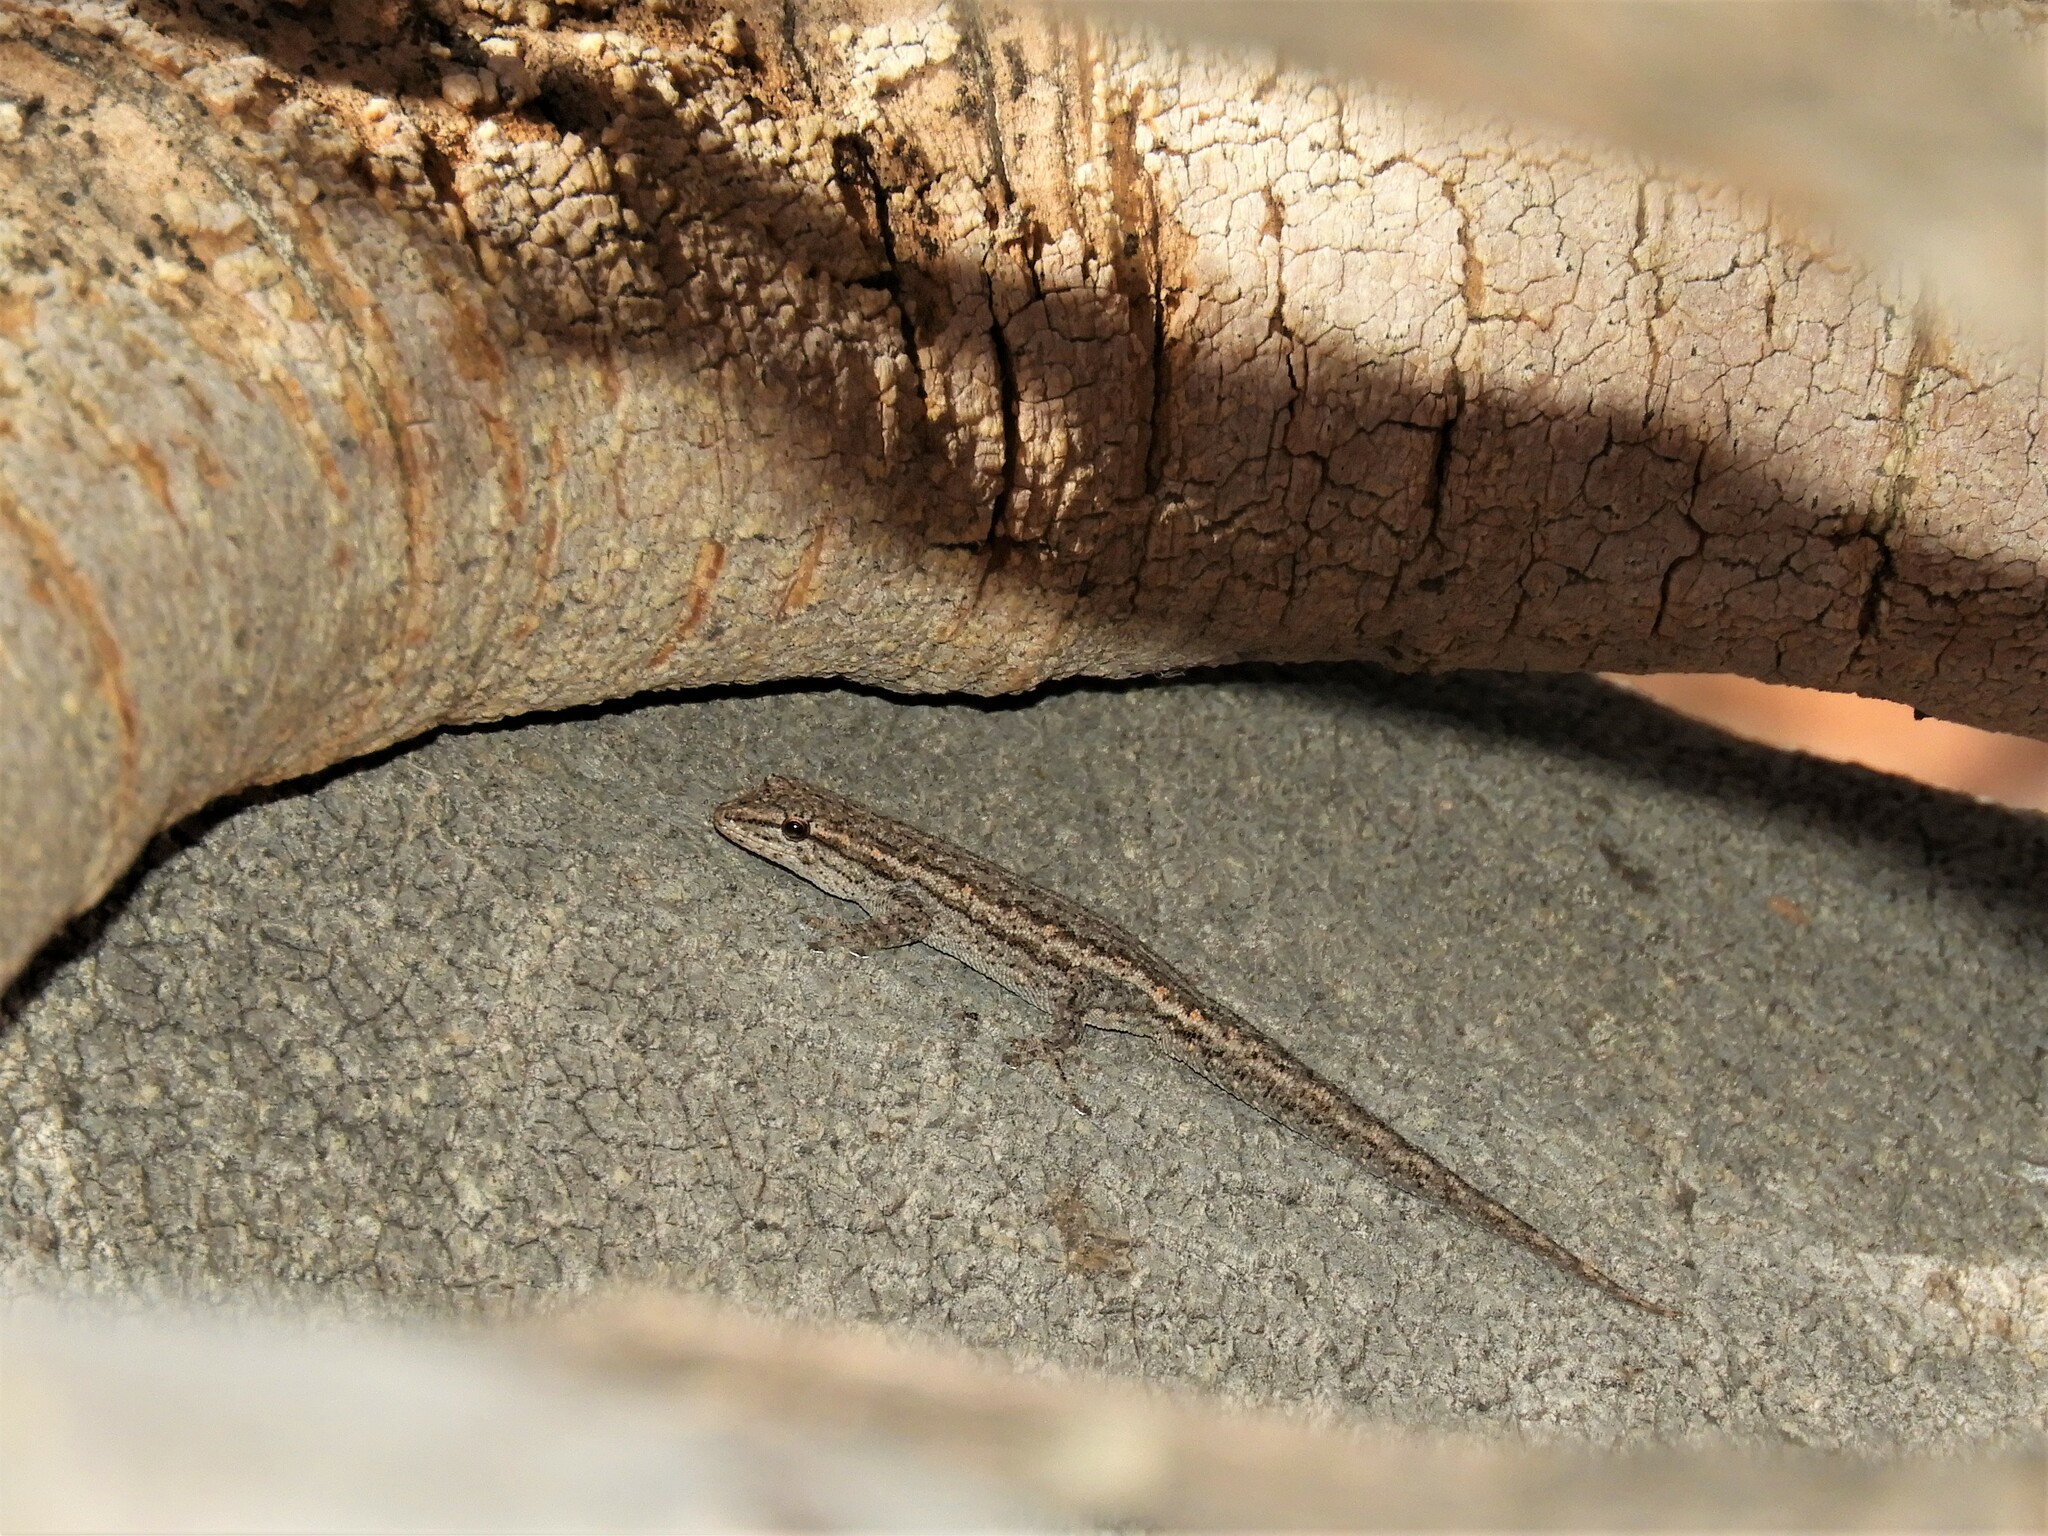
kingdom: Animalia
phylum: Chordata
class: Squamata
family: Gekkonidae
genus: Lygodactylus
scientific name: Lygodactylus bradfieldi
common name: Bradfield's dwarf gecko
